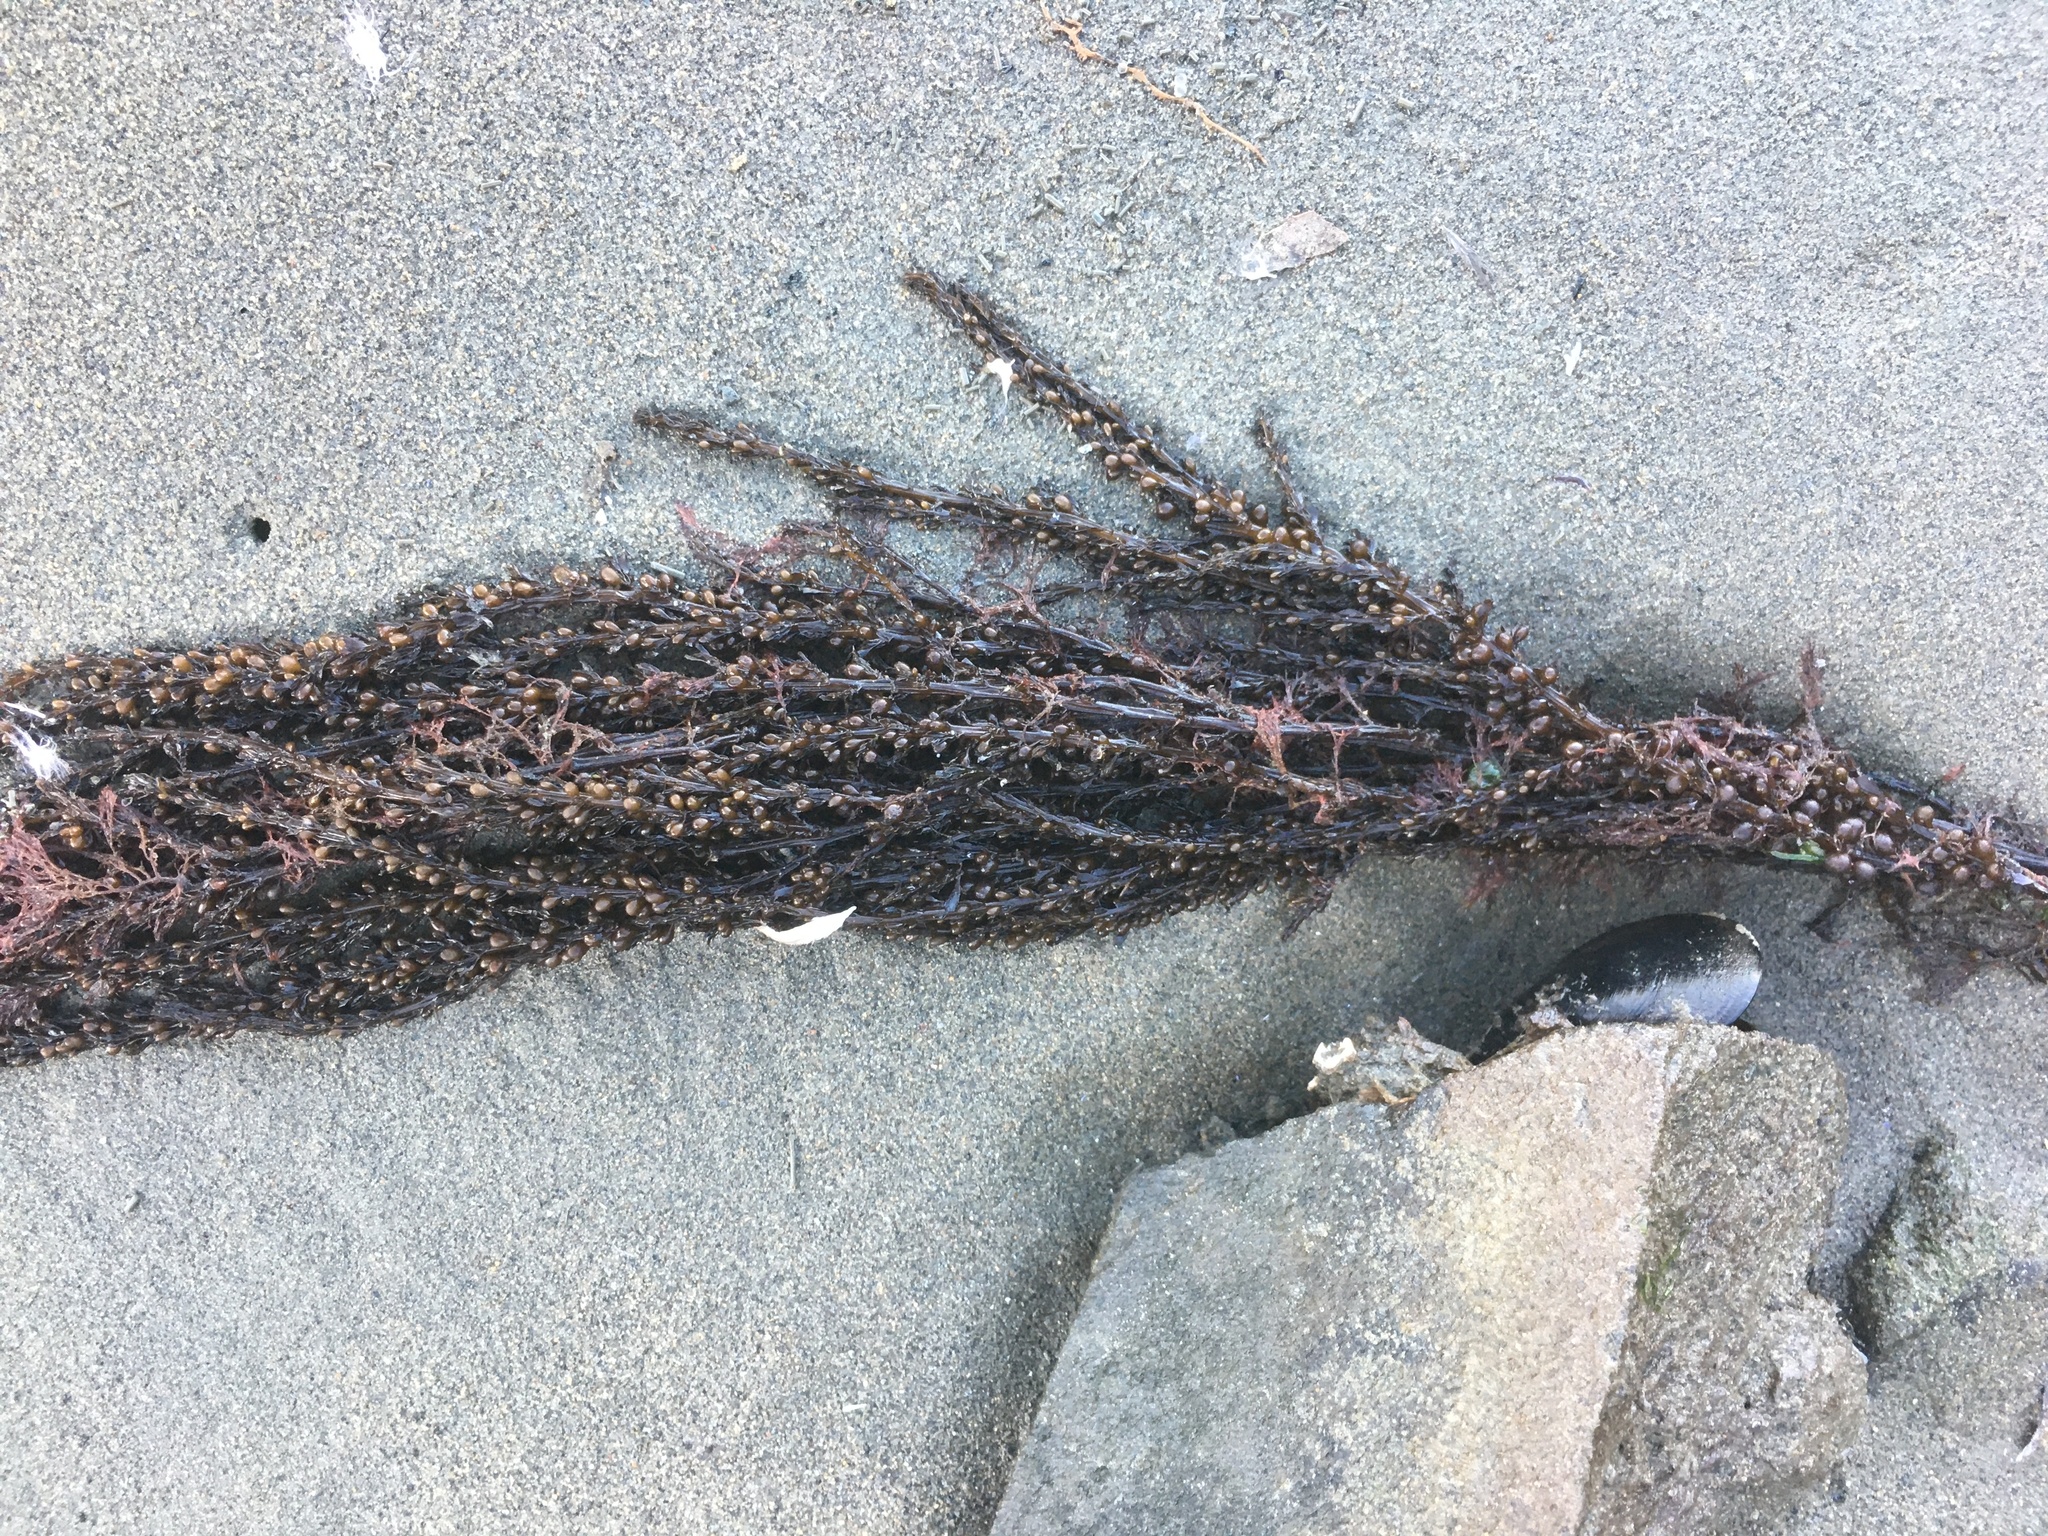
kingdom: Chromista
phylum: Ochrophyta
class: Phaeophyceae
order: Fucales
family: Sargassaceae
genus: Sargassum
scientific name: Sargassum muticum
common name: Japweed
